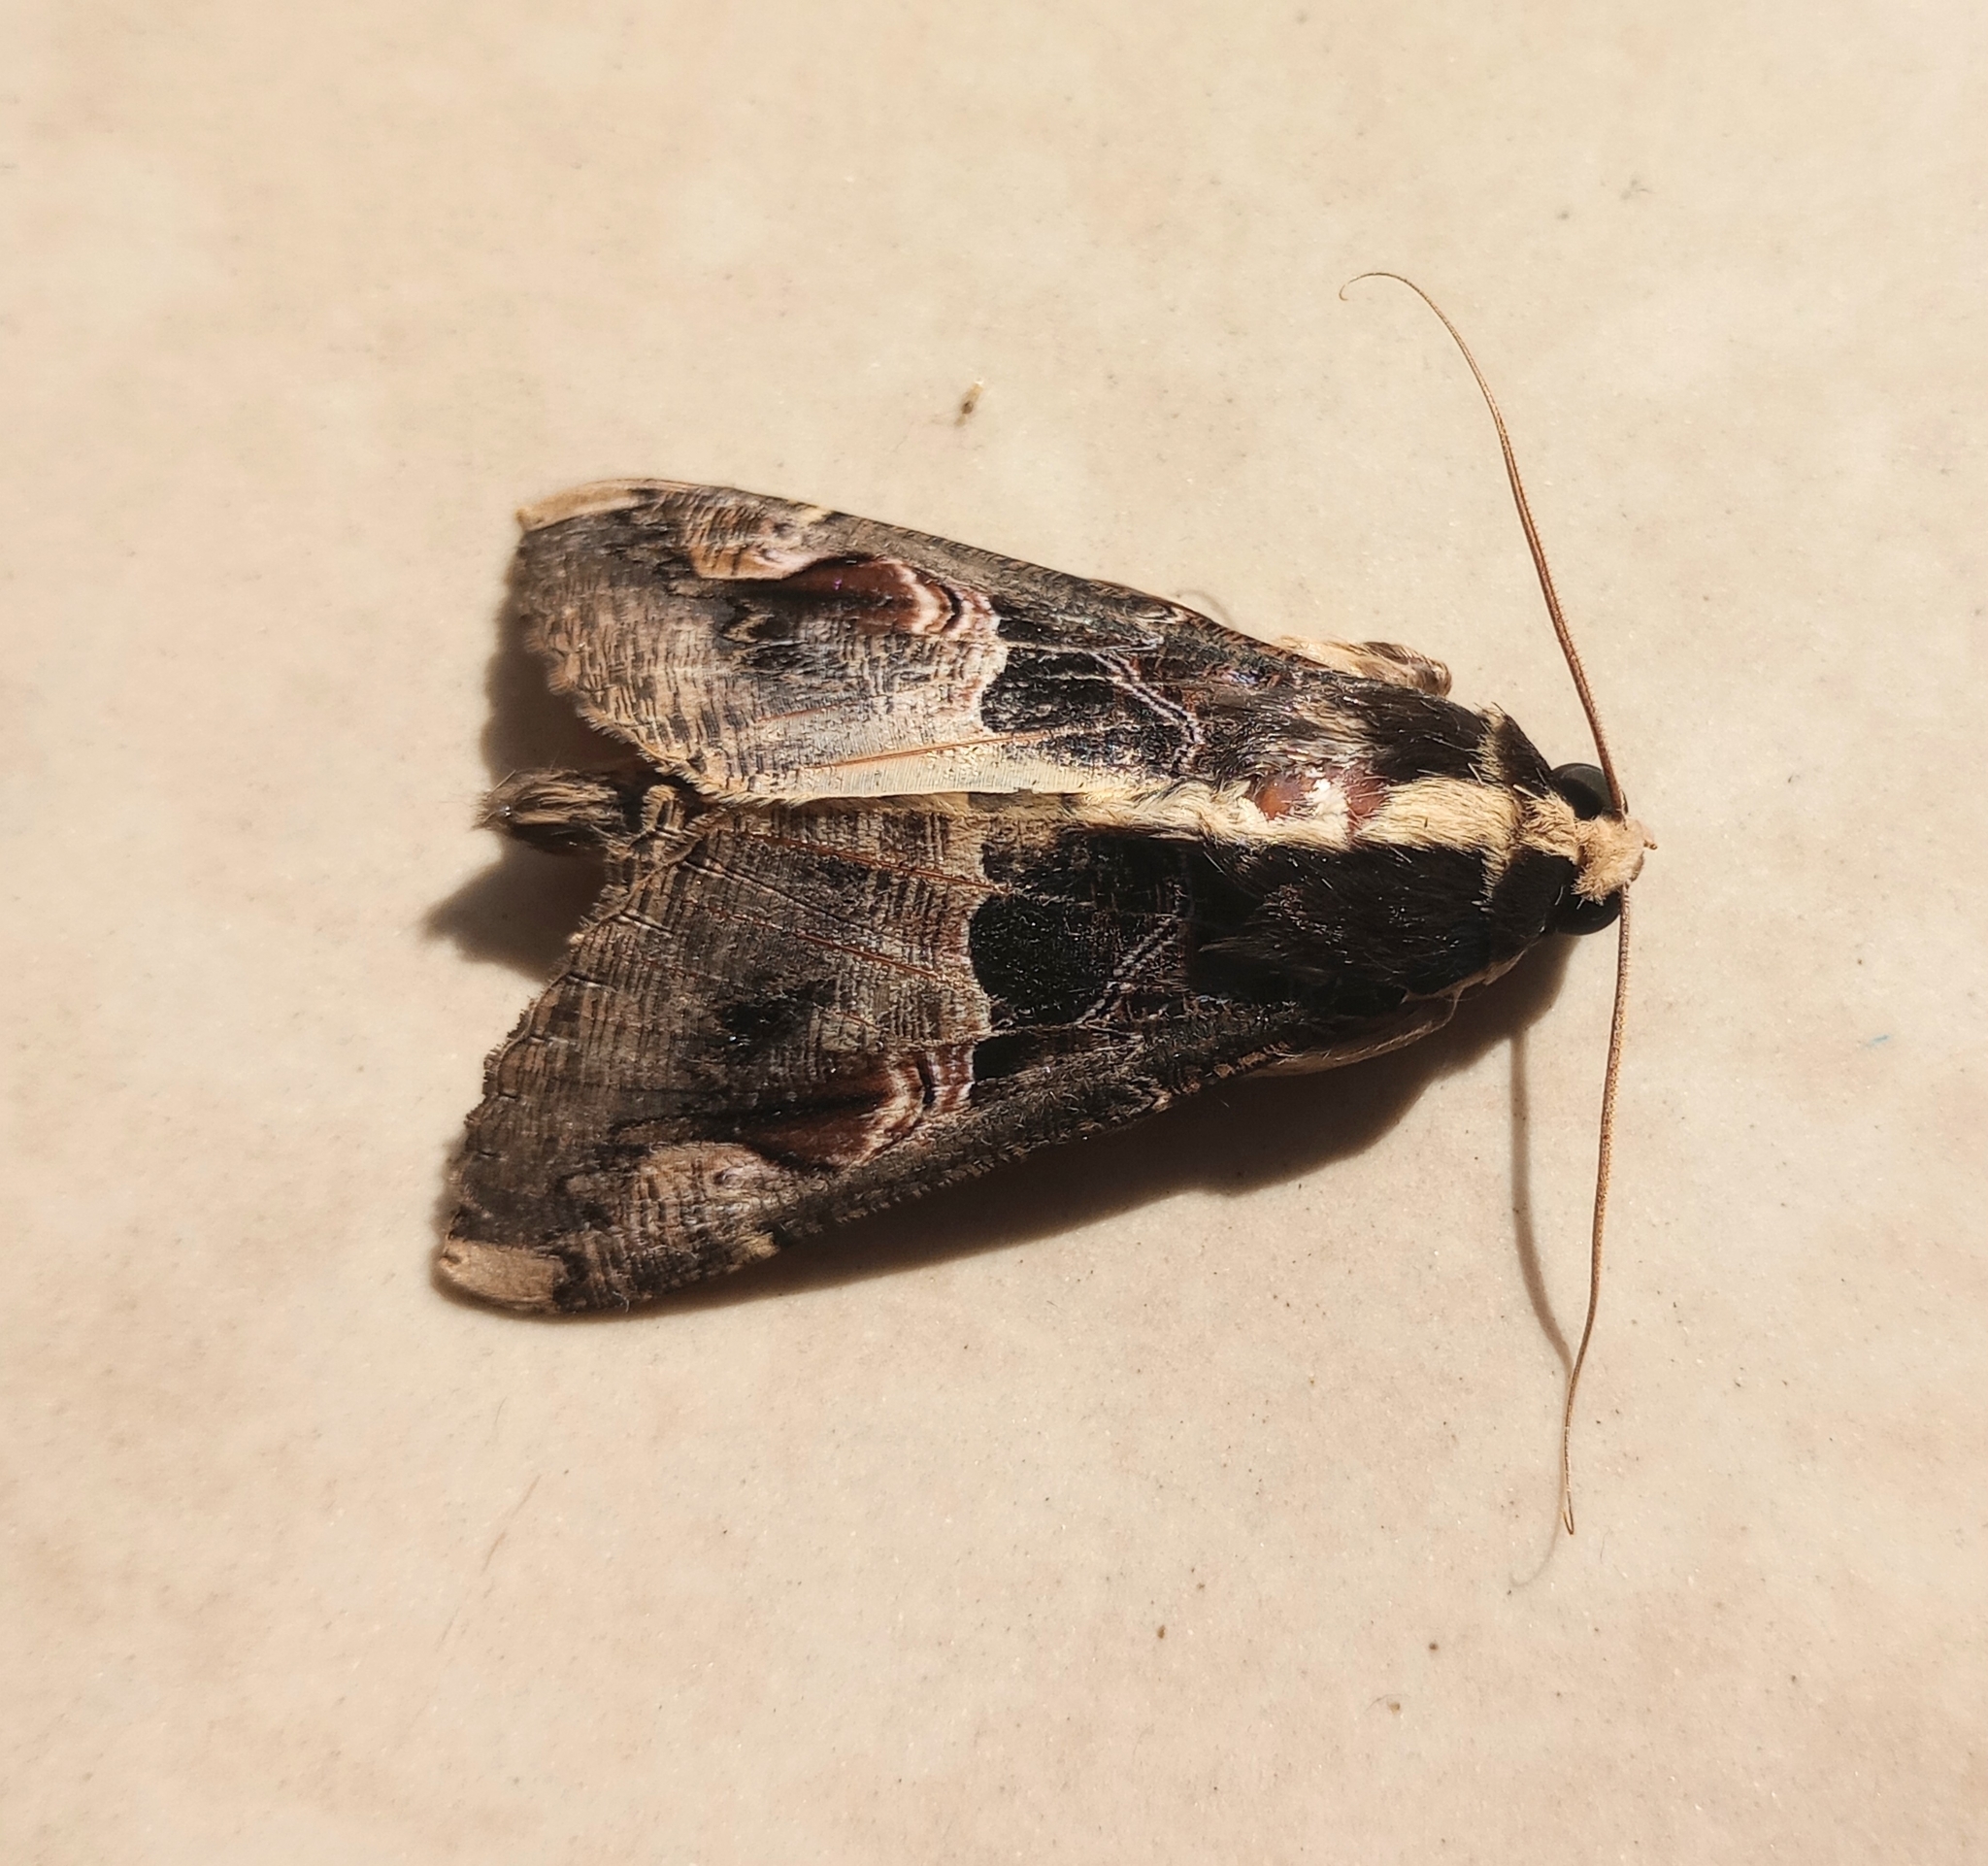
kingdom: Animalia
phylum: Arthropoda
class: Insecta
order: Lepidoptera
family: Erebidae
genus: Sphingomorpha
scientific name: Sphingomorpha chlorea
